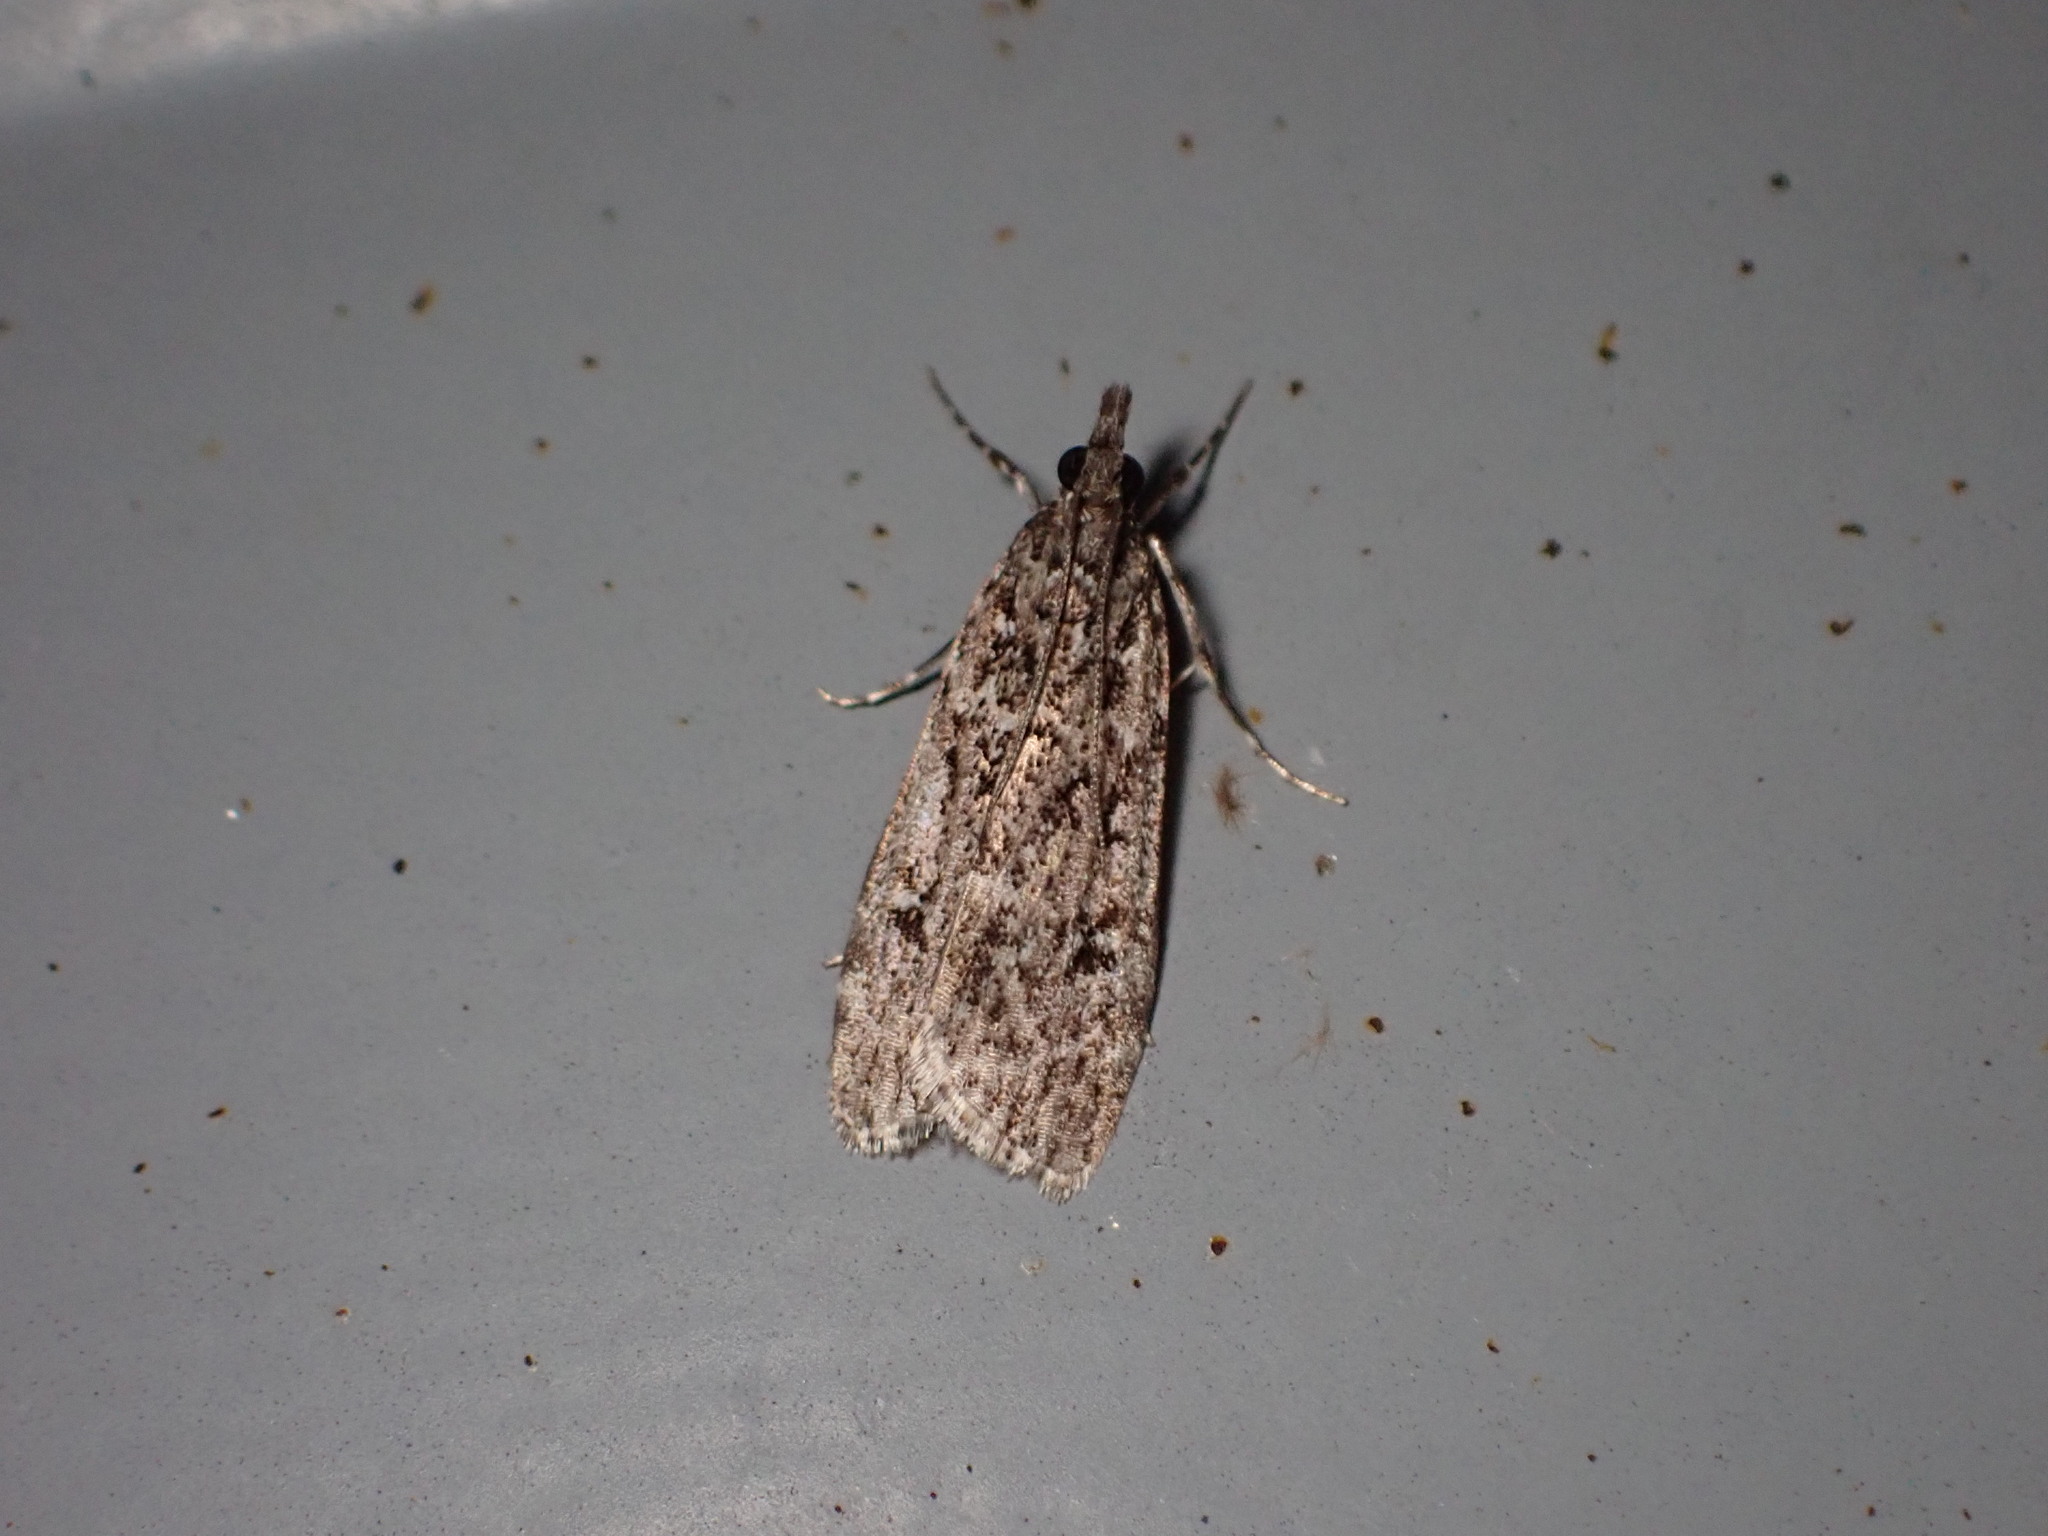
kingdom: Animalia
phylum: Arthropoda
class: Insecta
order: Lepidoptera
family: Crambidae
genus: Eudonia
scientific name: Eudonia philerga
